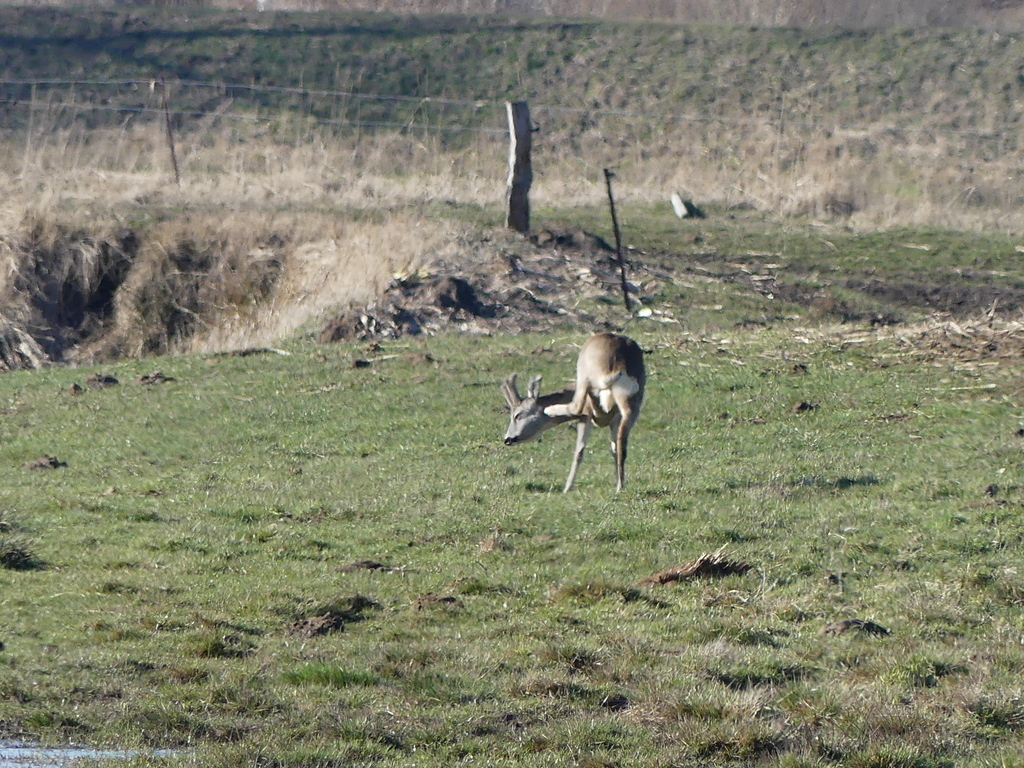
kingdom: Animalia
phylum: Chordata
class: Mammalia
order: Artiodactyla
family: Cervidae
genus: Capreolus
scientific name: Capreolus capreolus
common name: Western roe deer
